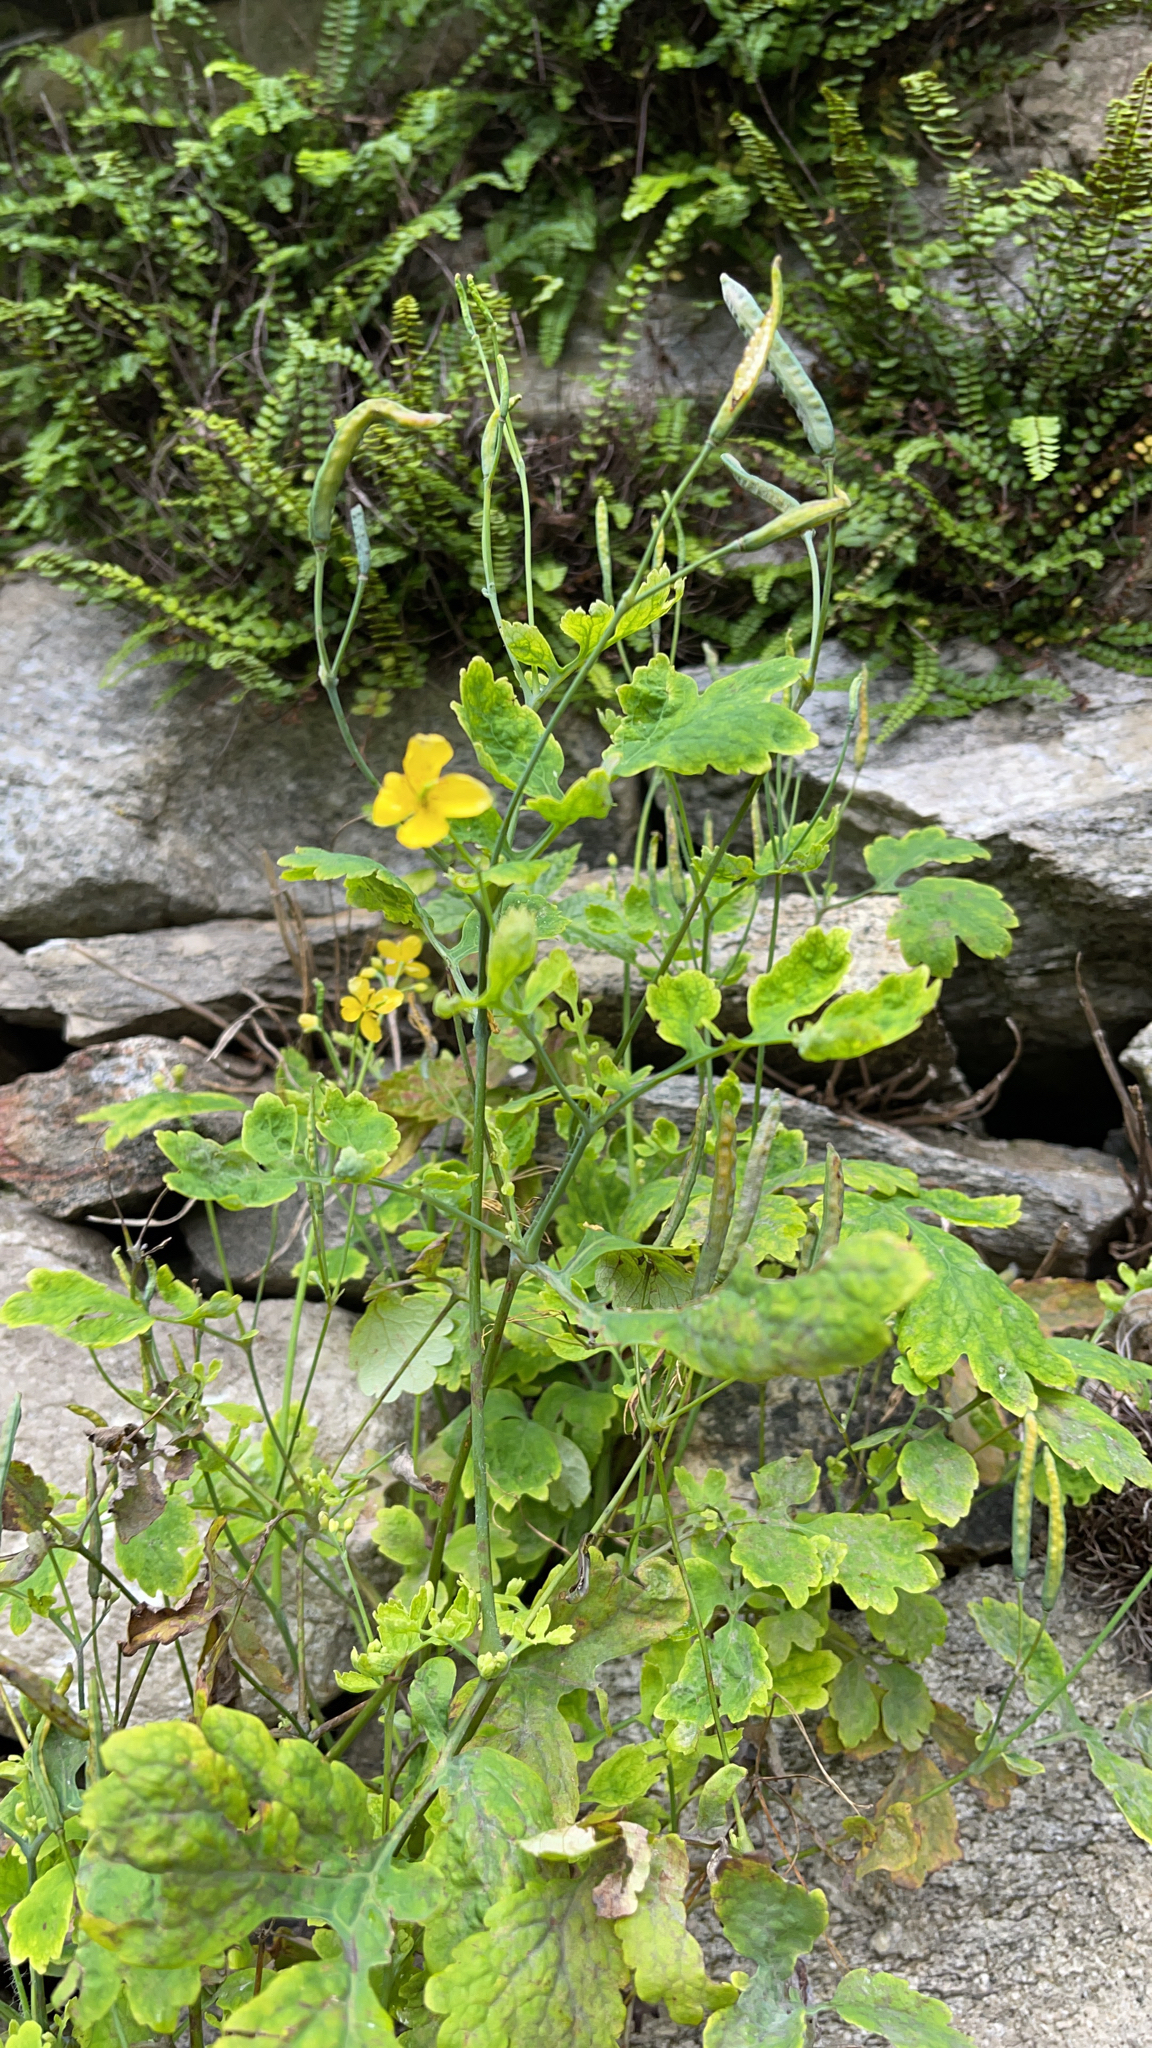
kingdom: Plantae
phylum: Tracheophyta
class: Magnoliopsida
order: Ranunculales
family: Papaveraceae
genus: Chelidonium
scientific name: Chelidonium majus
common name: Greater celandine
